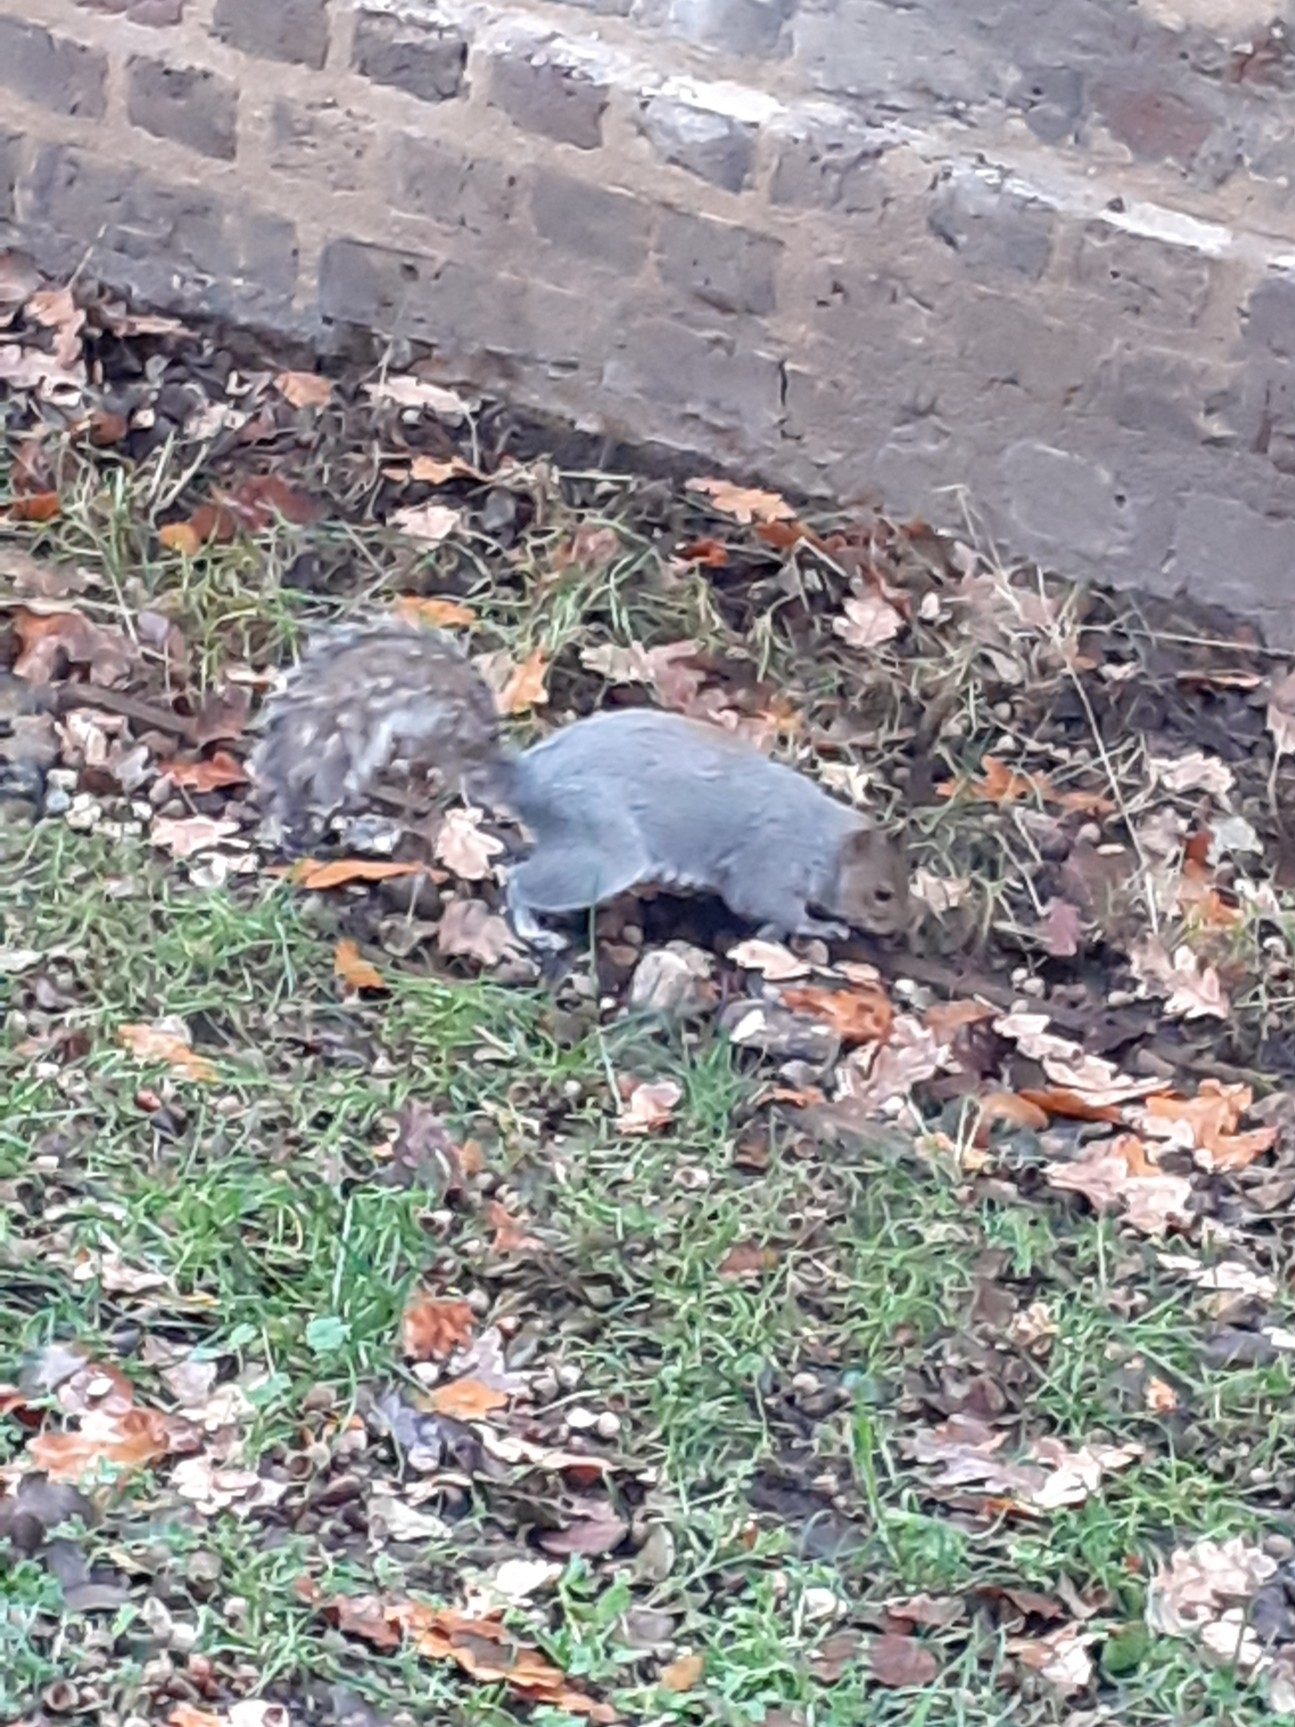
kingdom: Animalia
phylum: Chordata
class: Mammalia
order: Rodentia
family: Sciuridae
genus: Sciurus
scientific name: Sciurus carolinensis
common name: Eastern gray squirrel
